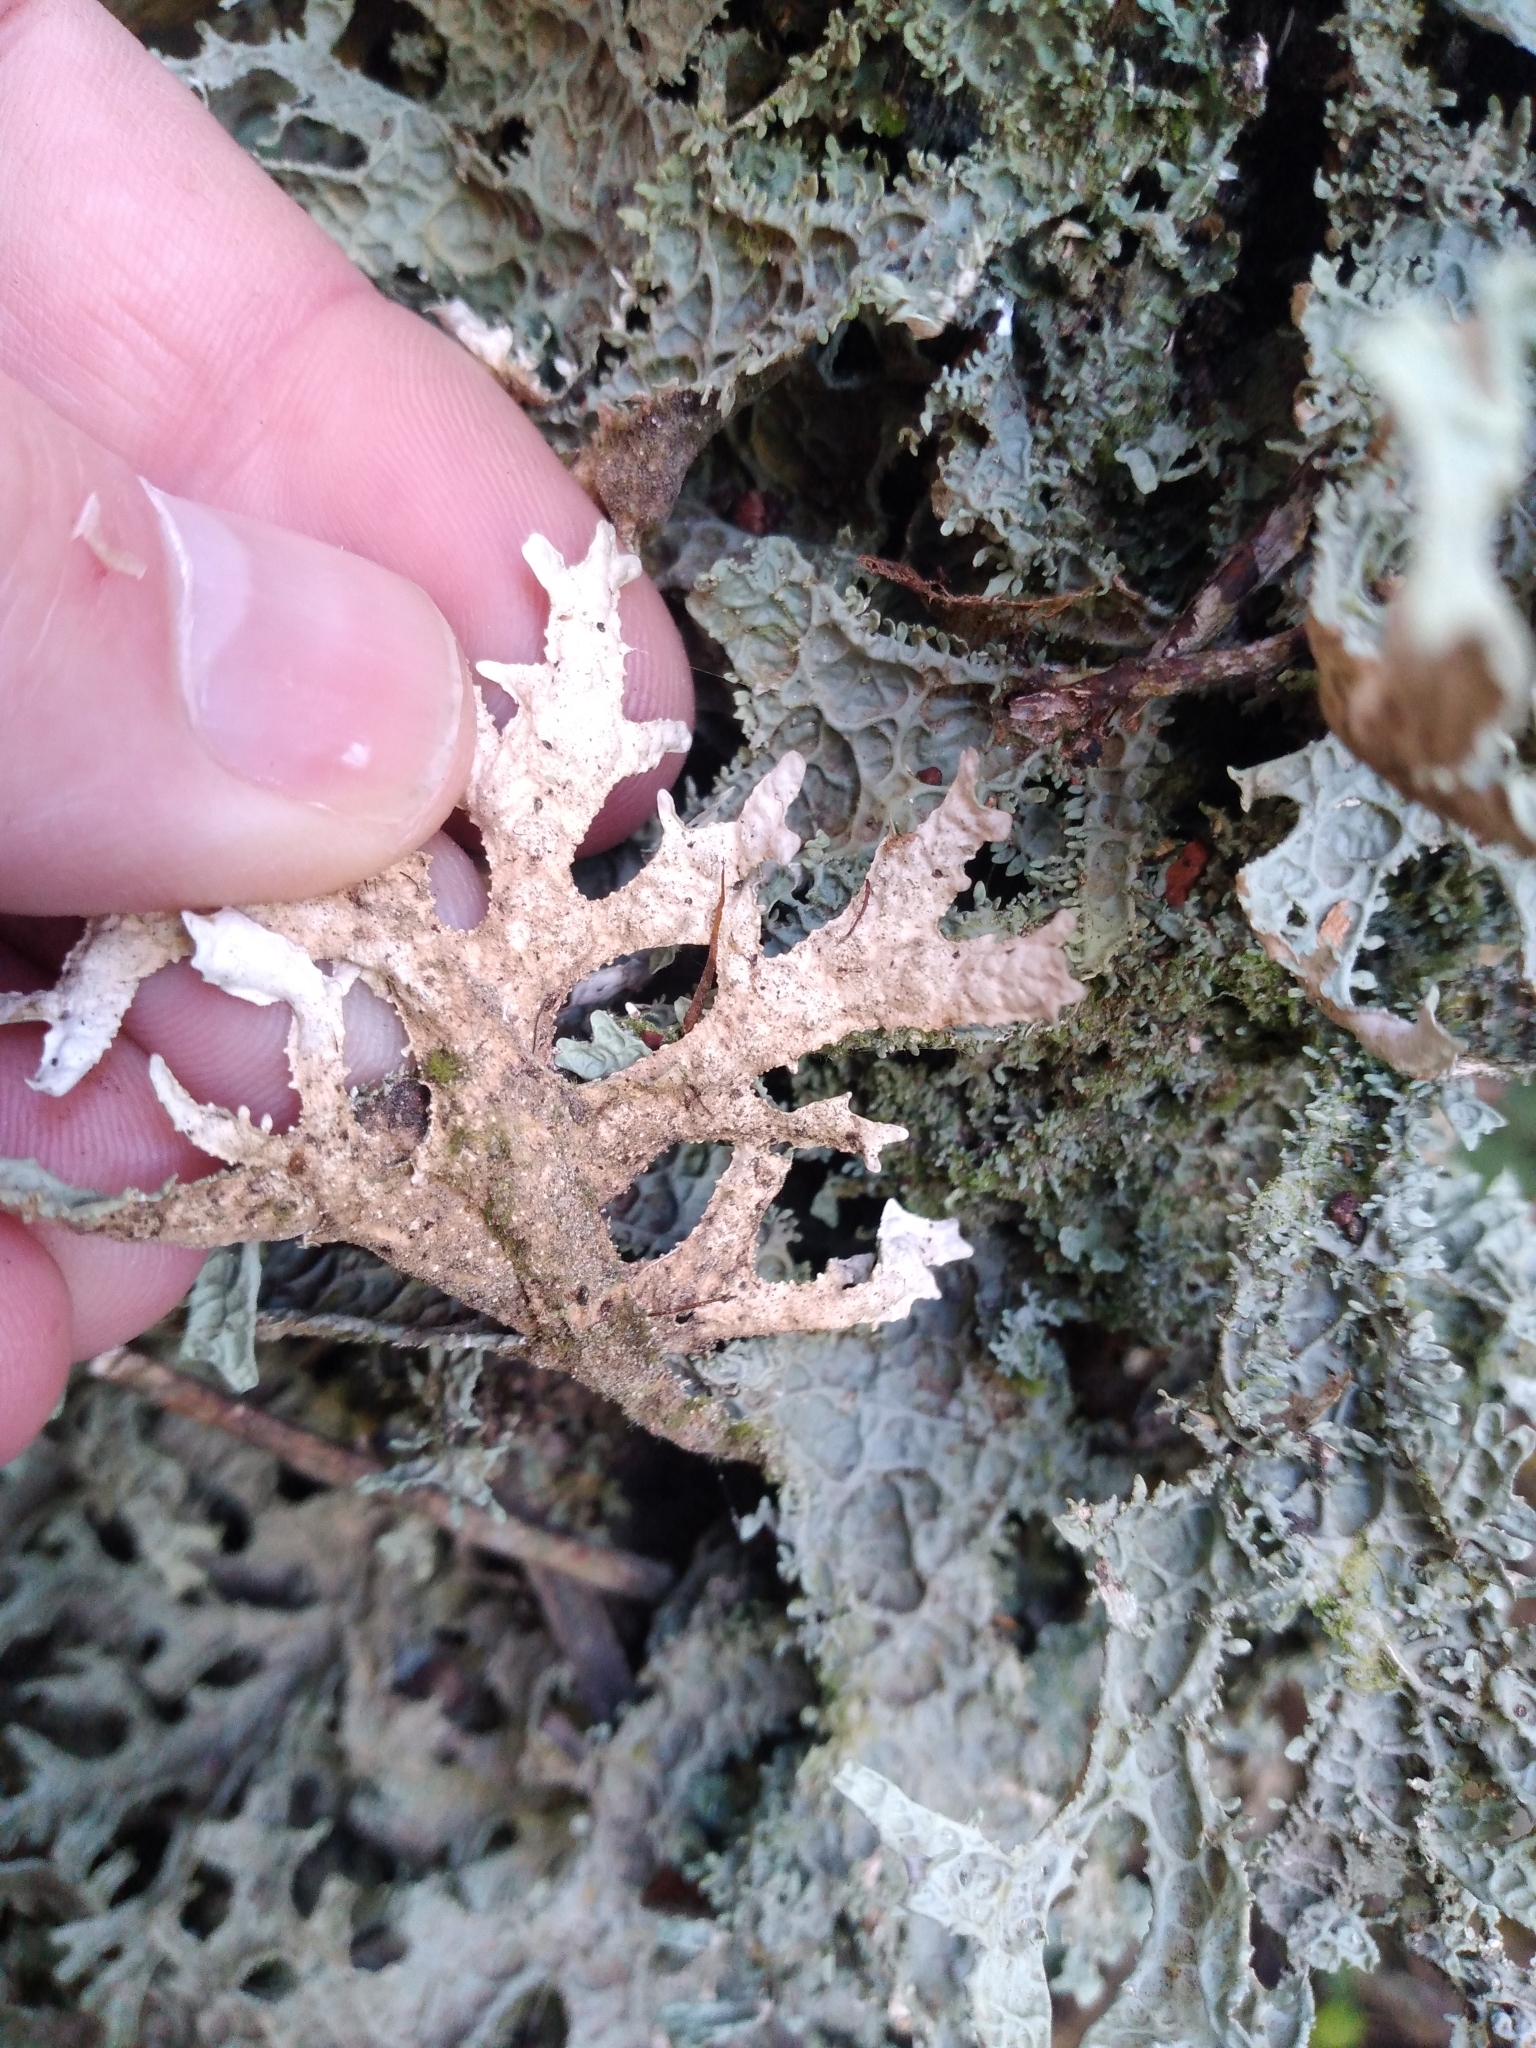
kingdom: Fungi
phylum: Ascomycota
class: Lecanoromycetes
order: Peltigerales
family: Lobariaceae
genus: Pseudocyphellaria
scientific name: Pseudocyphellaria rufovirescens
